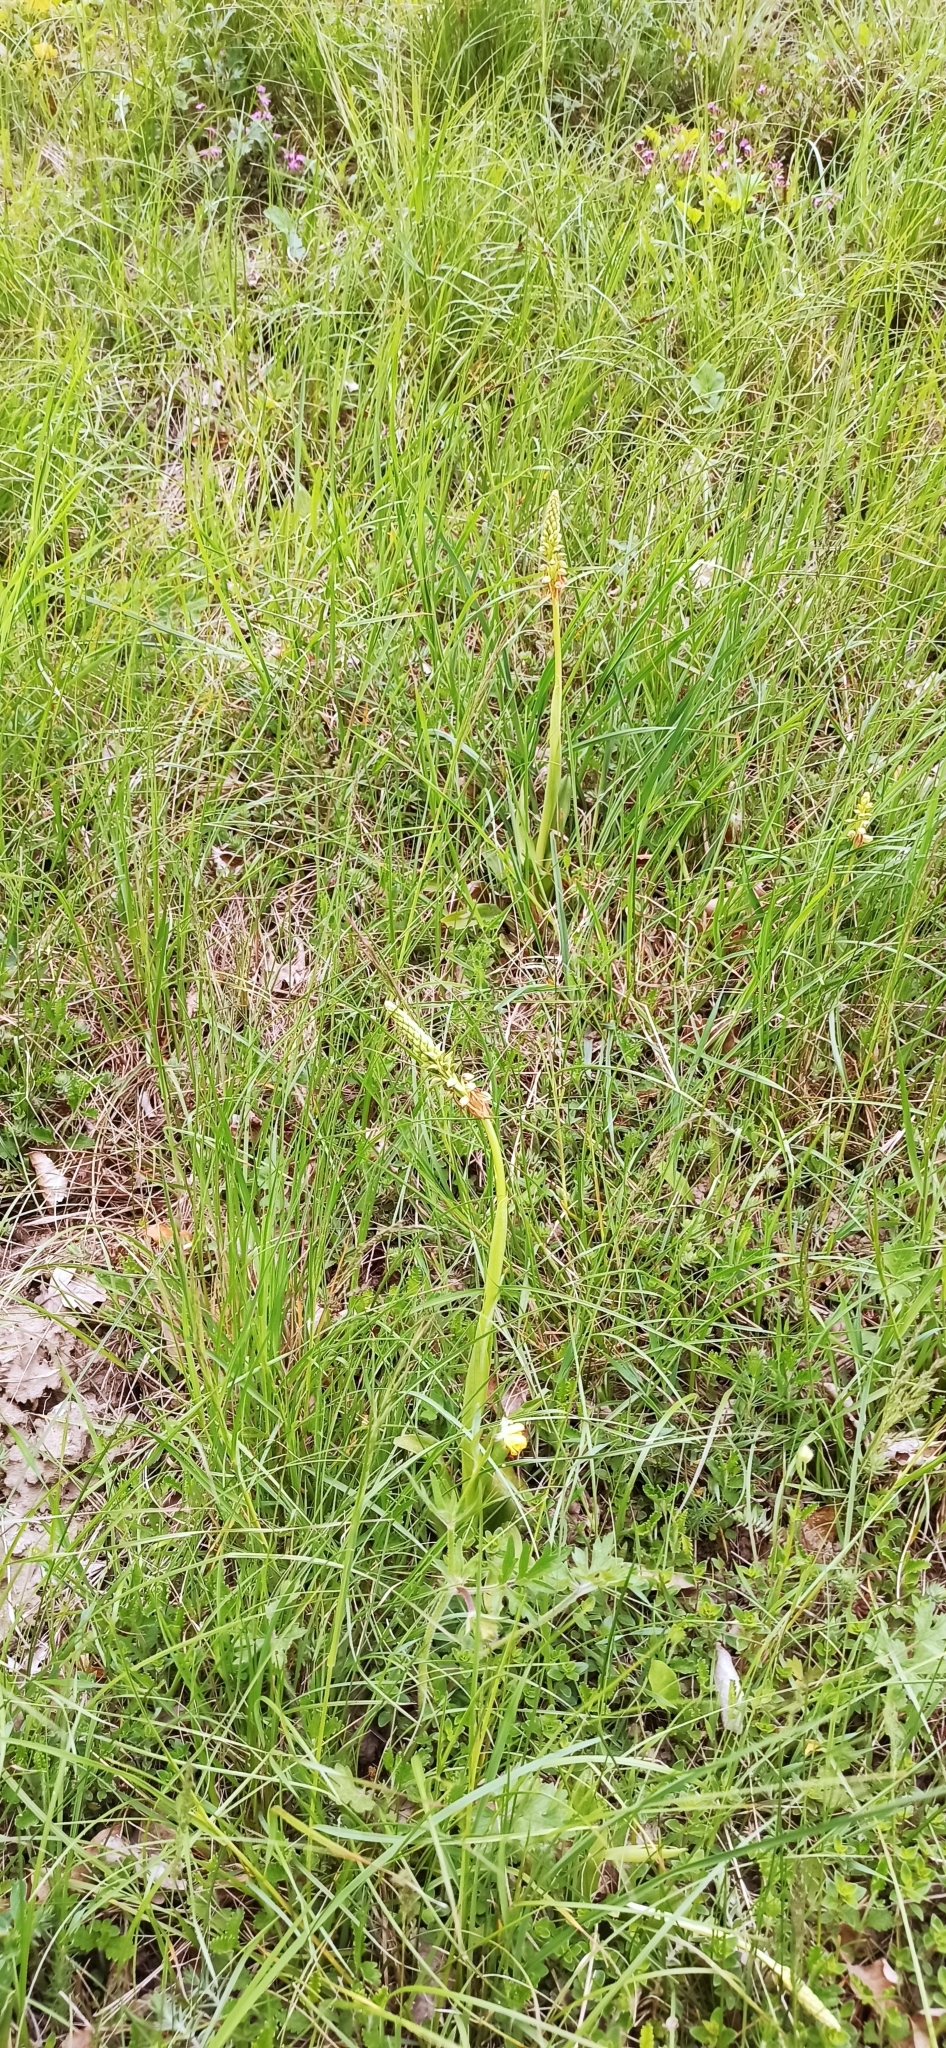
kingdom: Plantae
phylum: Tracheophyta
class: Liliopsida
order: Asparagales
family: Orchidaceae
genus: Orchis
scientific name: Orchis anthropophora
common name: Man orchid
